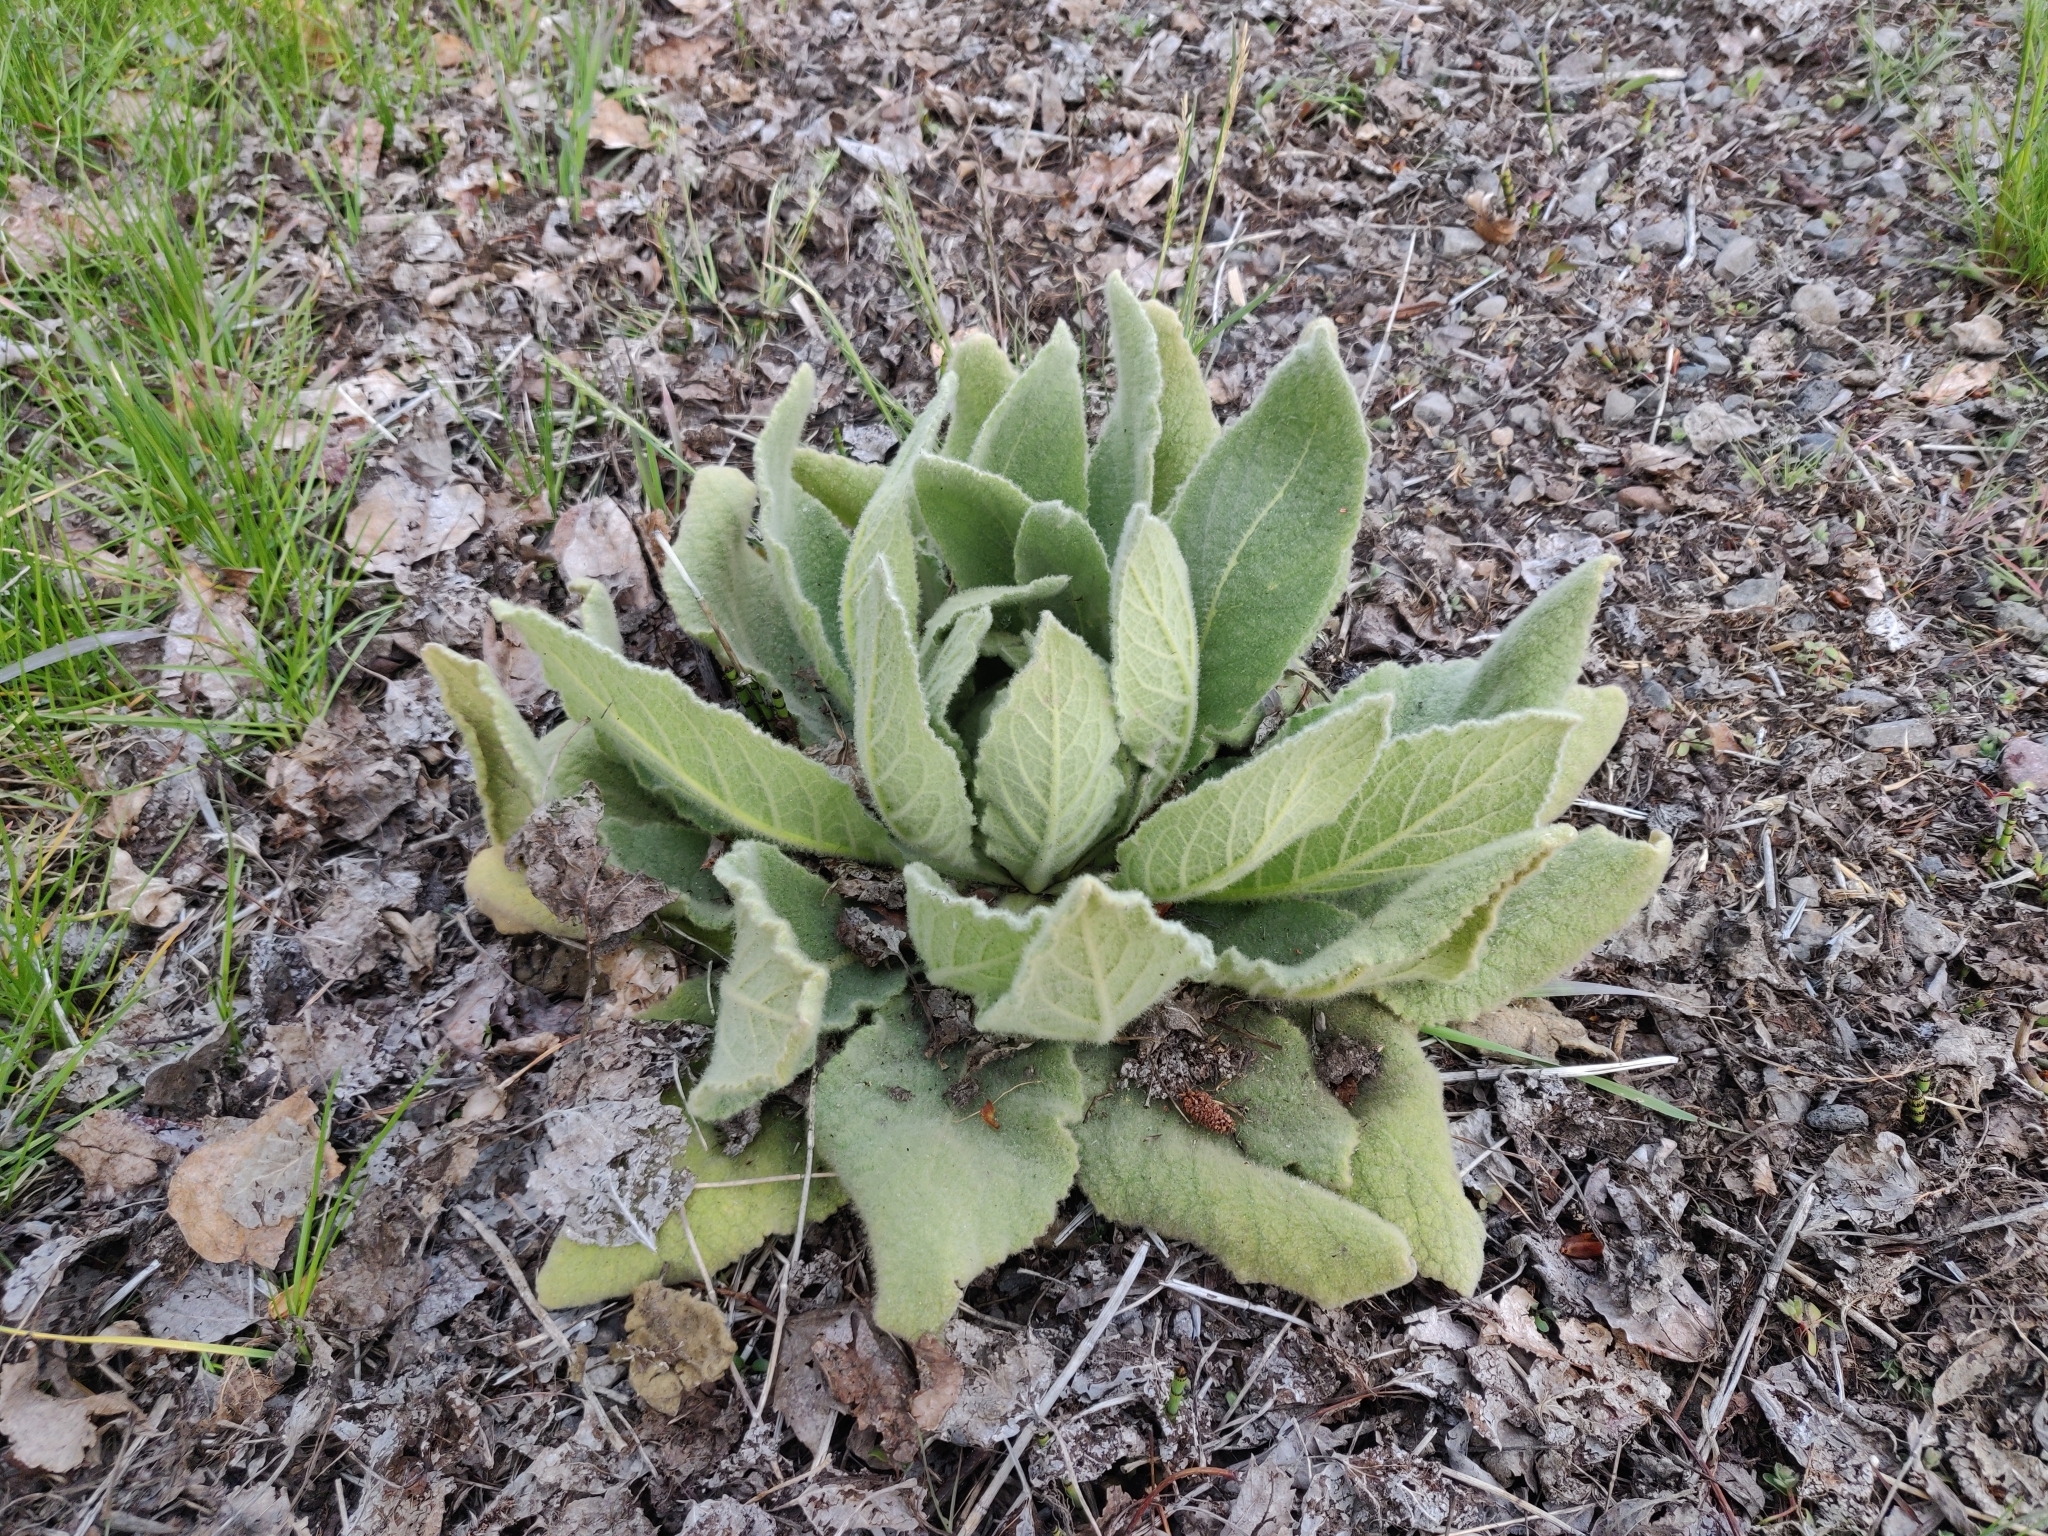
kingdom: Plantae
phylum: Tracheophyta
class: Magnoliopsida
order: Lamiales
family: Scrophulariaceae
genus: Verbascum
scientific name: Verbascum thapsus
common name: Common mullein
